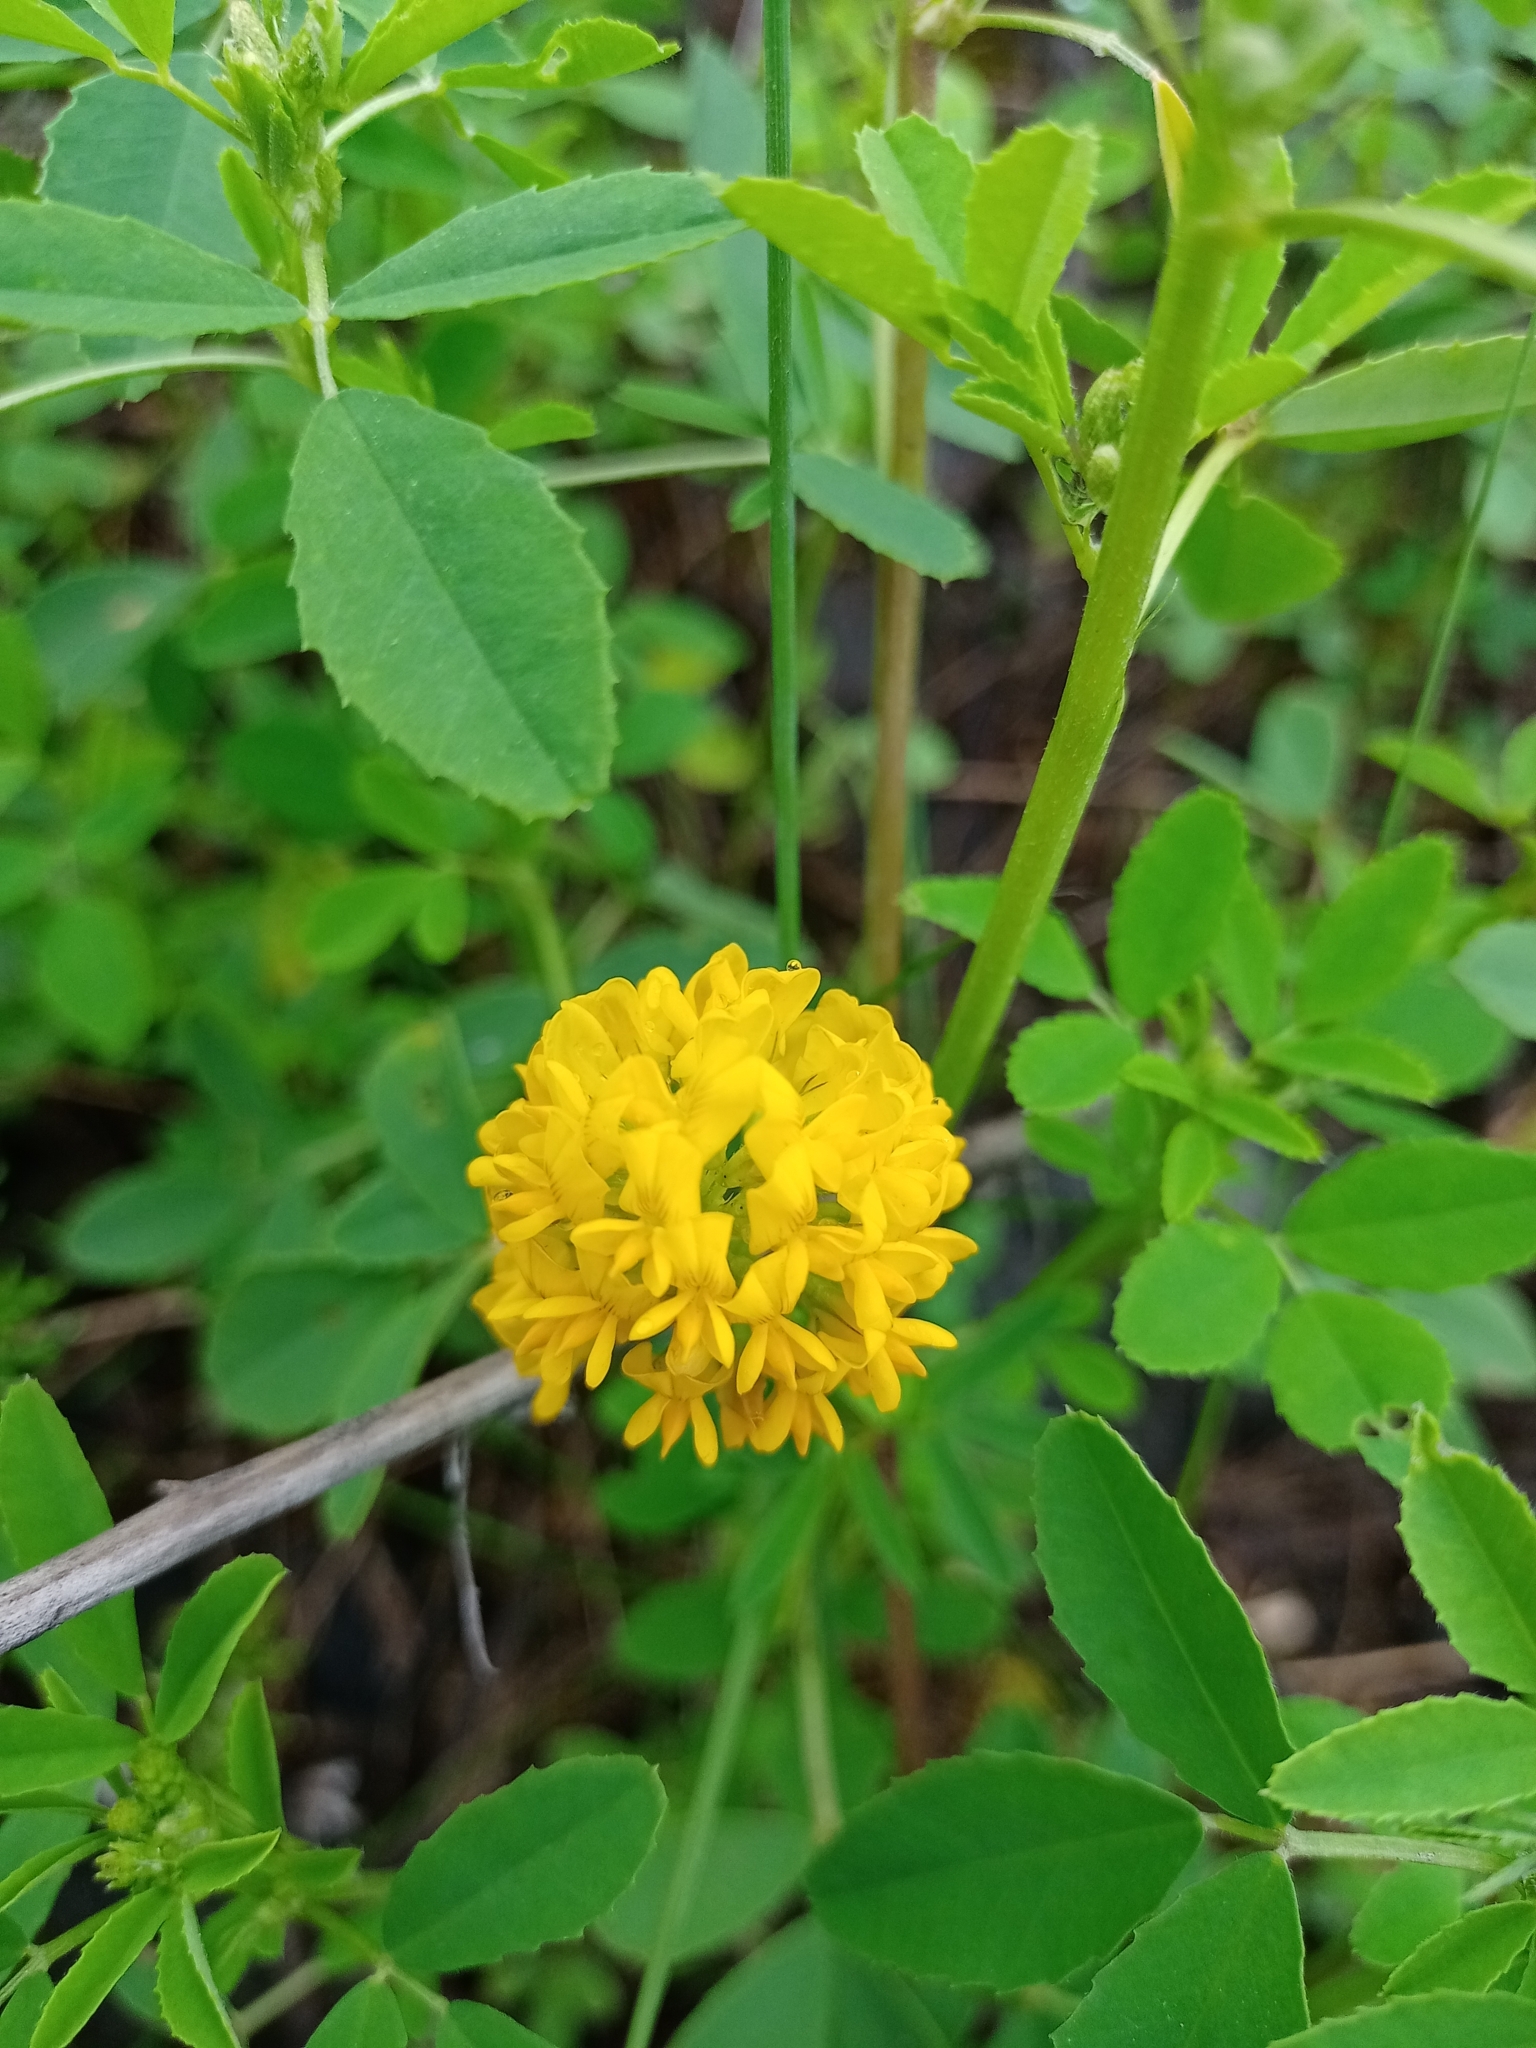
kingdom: Plantae
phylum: Tracheophyta
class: Magnoliopsida
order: Fabales
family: Fabaceae
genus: Medicago
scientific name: Medicago falcata
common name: Sickle medick
